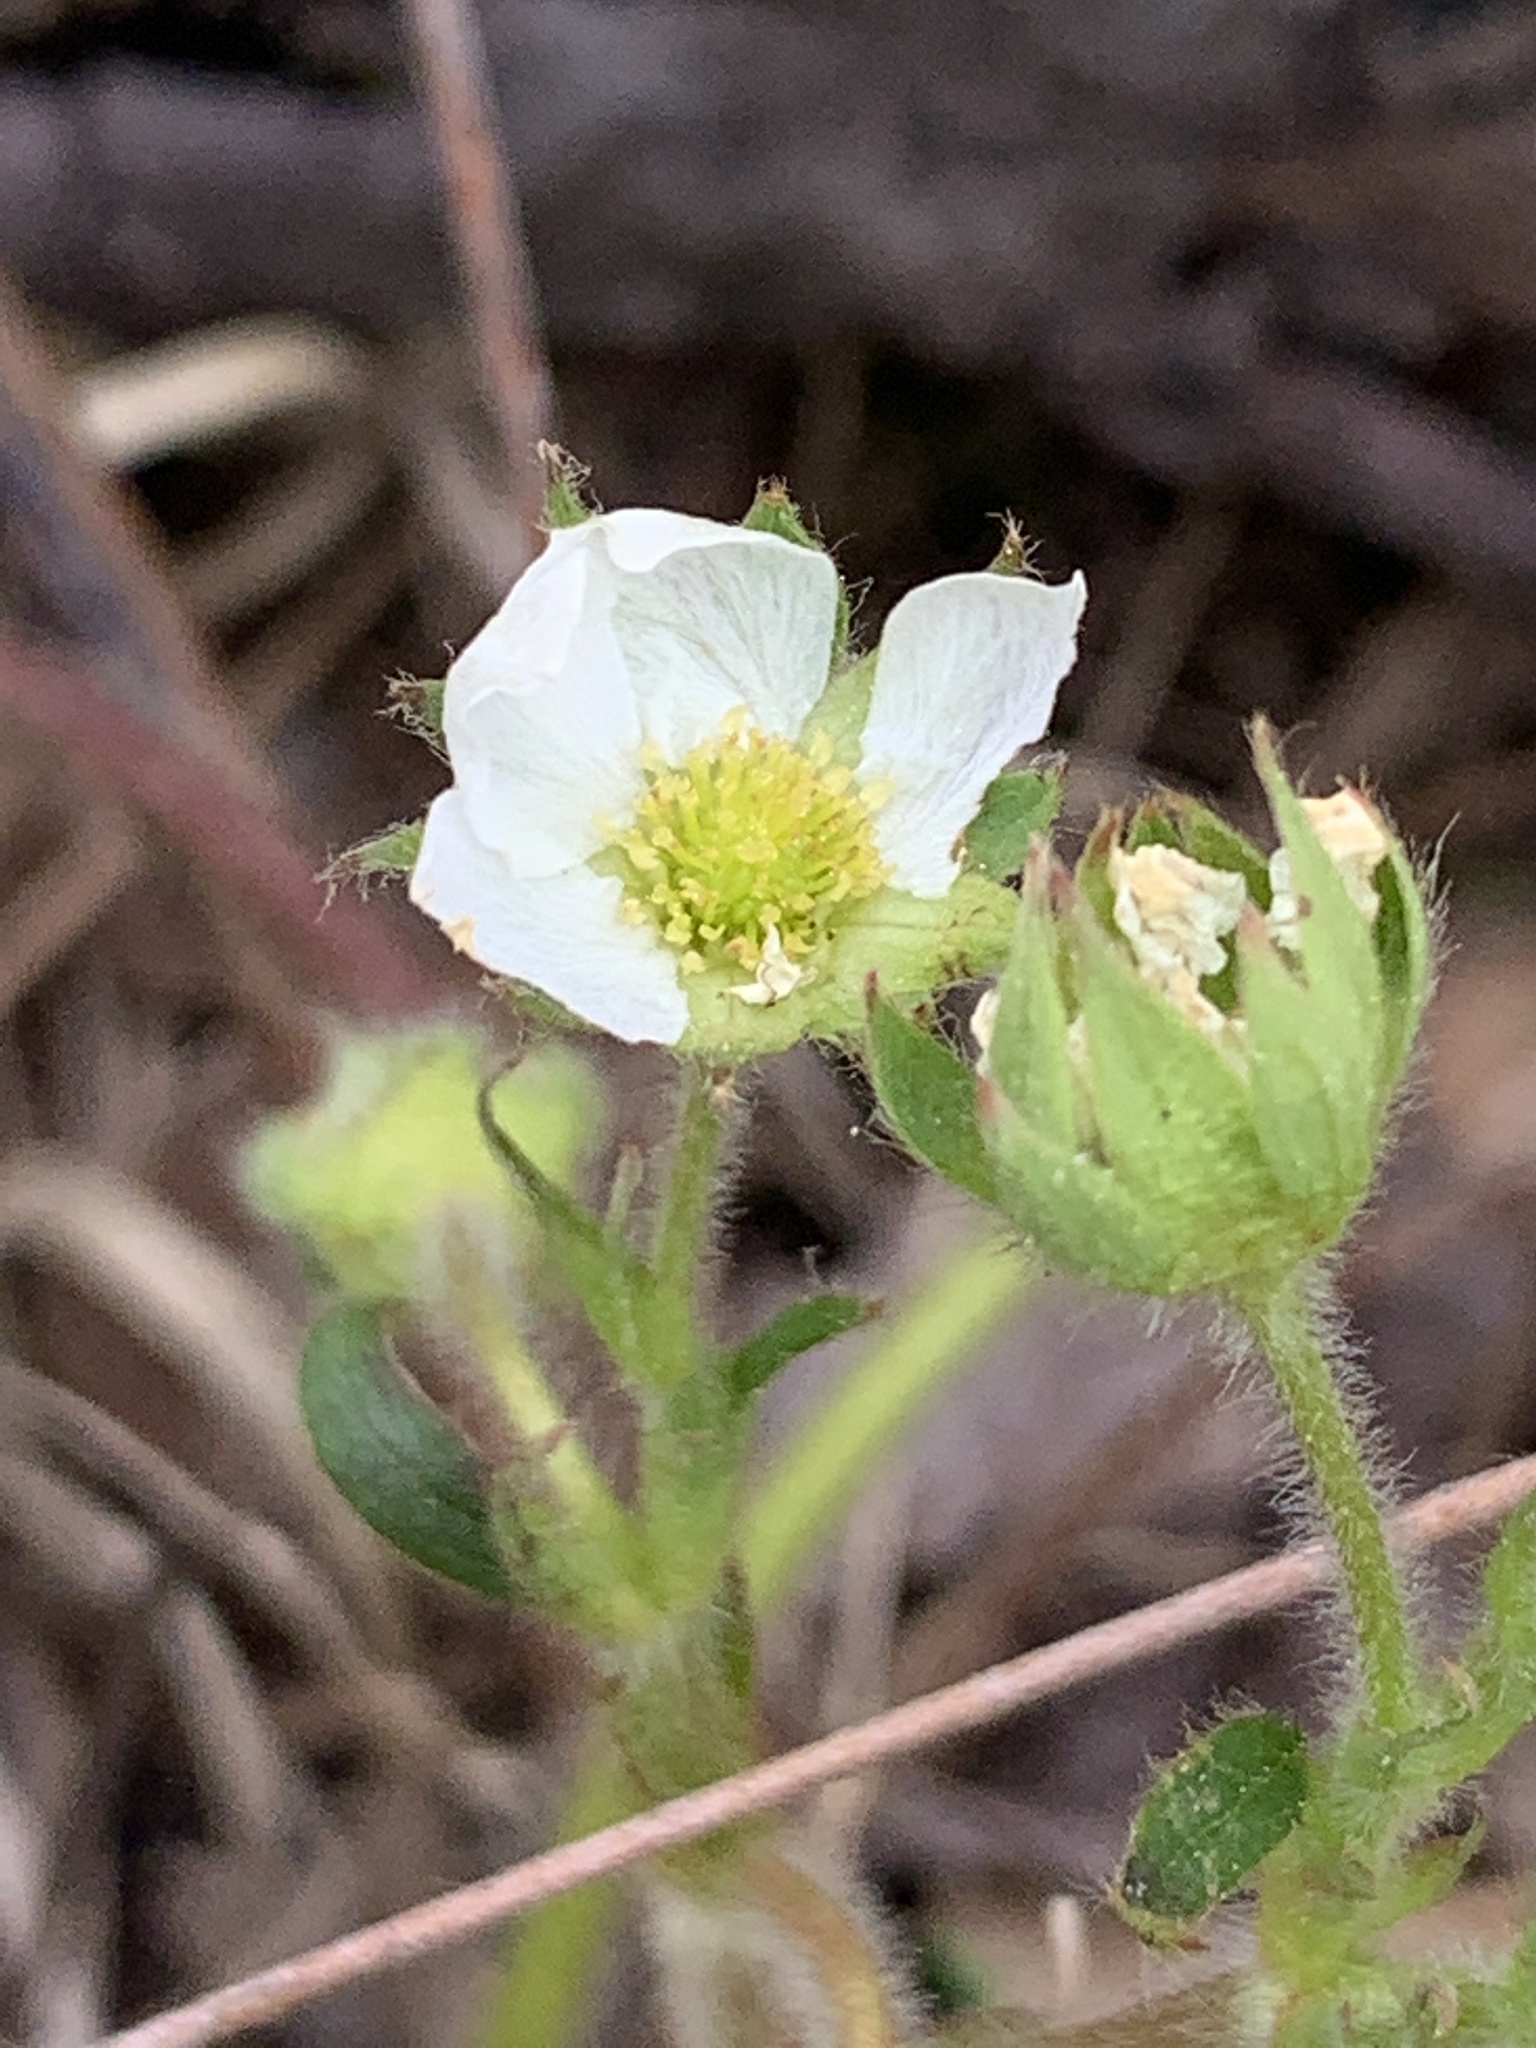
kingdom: Plantae
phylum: Tracheophyta
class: Magnoliopsida
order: Rosales
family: Rosaceae
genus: Fragaria
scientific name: Fragaria vesca
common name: Wild strawberry
